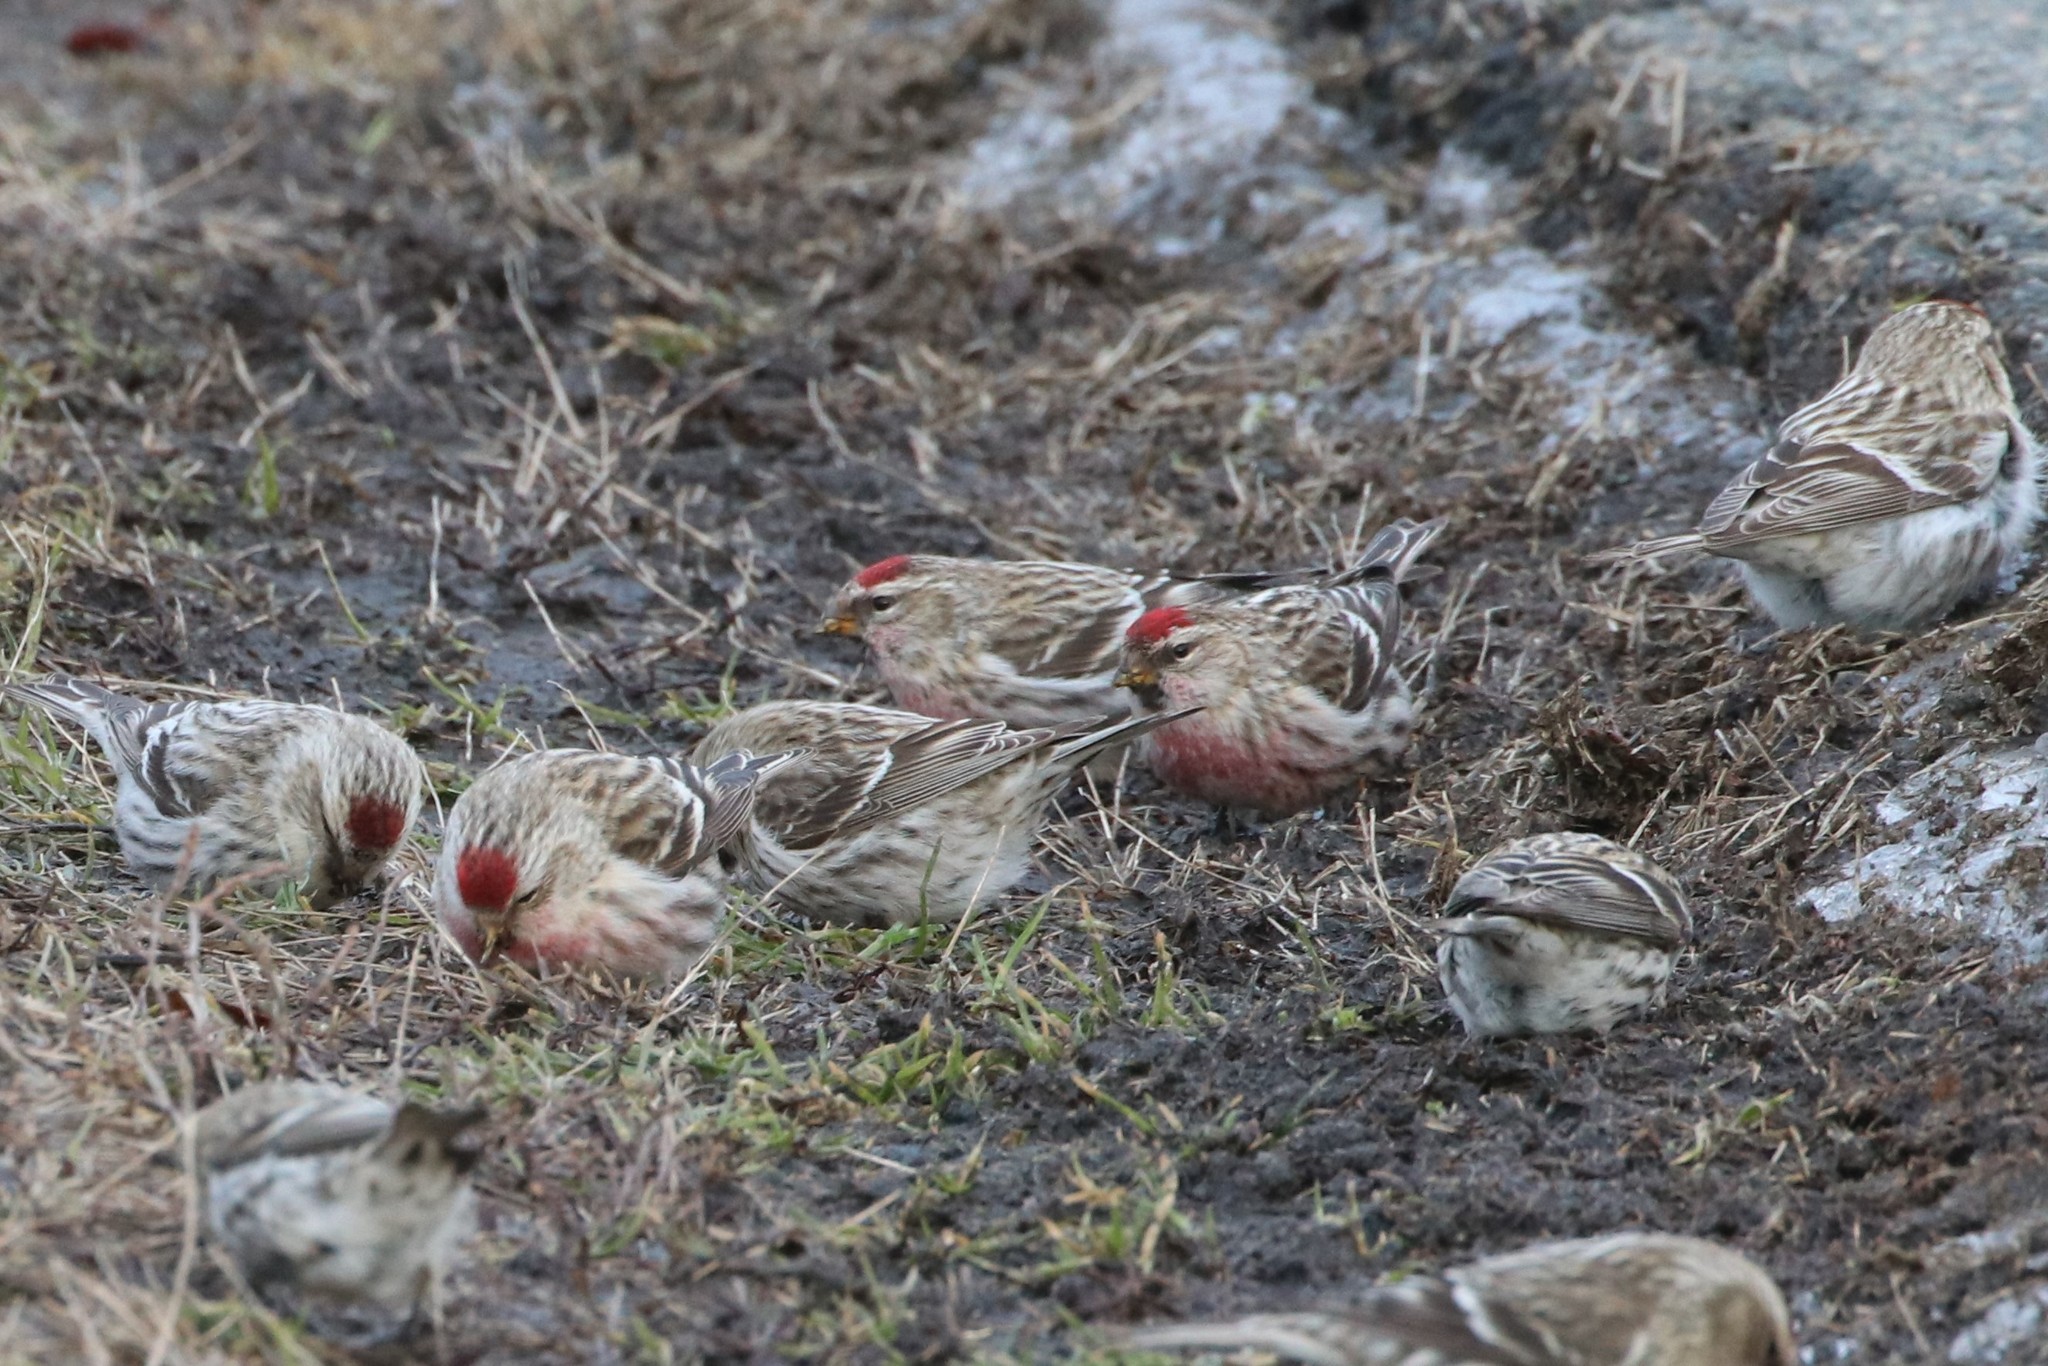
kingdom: Animalia
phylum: Chordata
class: Aves
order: Passeriformes
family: Fringillidae
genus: Acanthis
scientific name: Acanthis flammea
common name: Common redpoll
